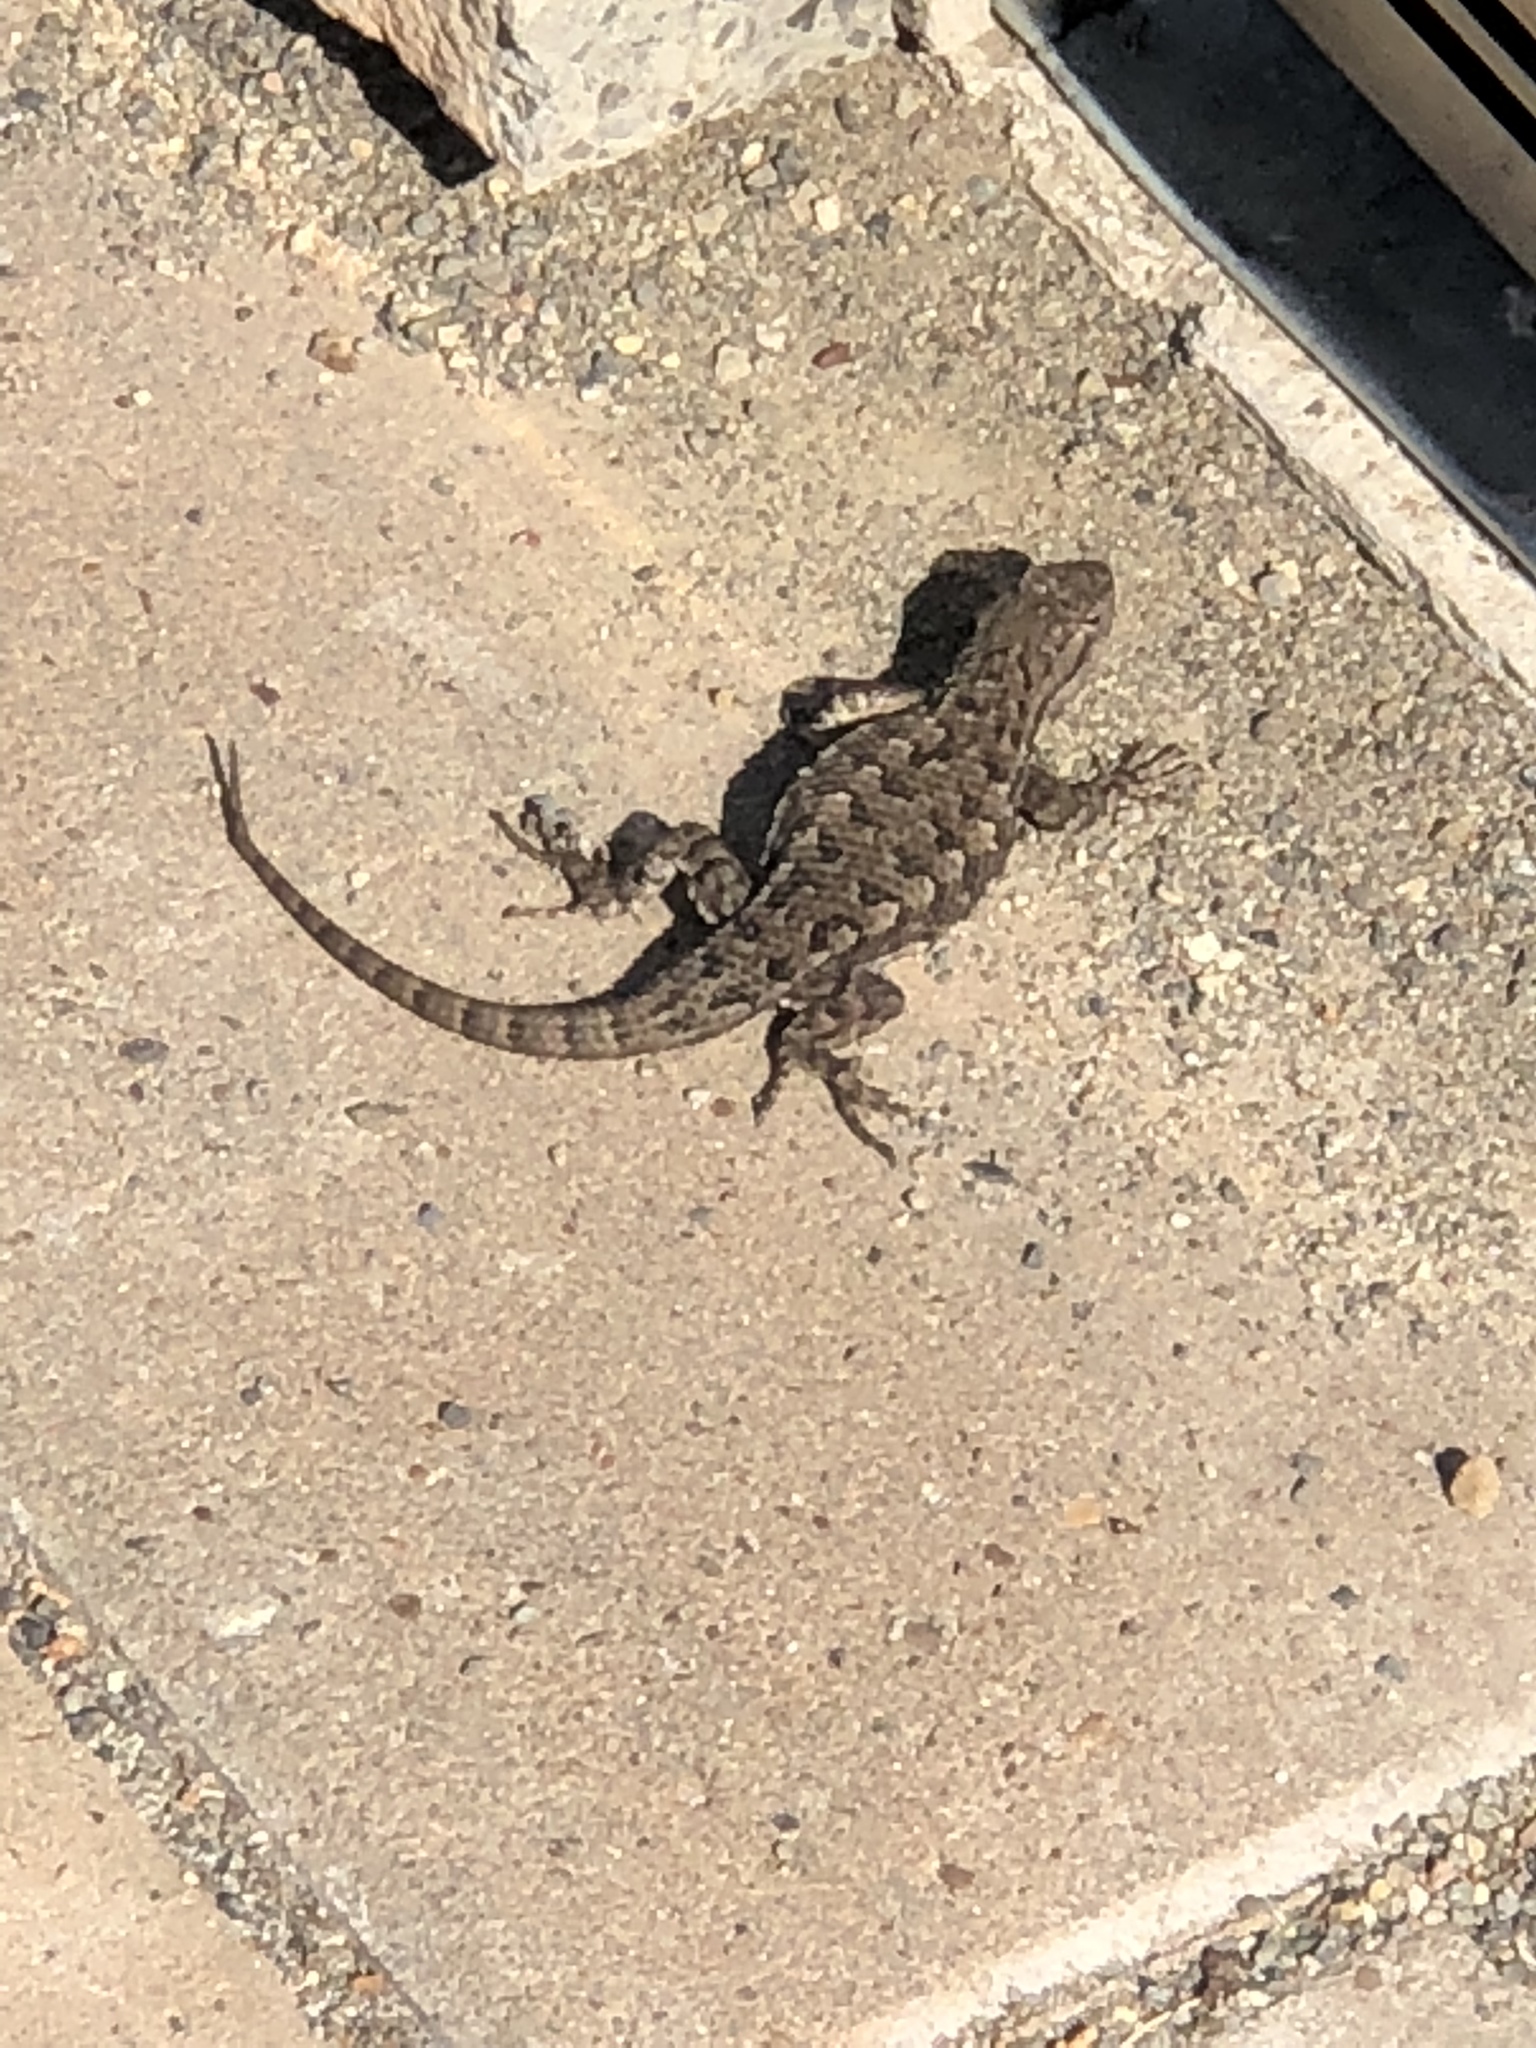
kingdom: Animalia
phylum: Chordata
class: Squamata
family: Phrynosomatidae
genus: Sceloporus
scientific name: Sceloporus occidentalis
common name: Western fence lizard
